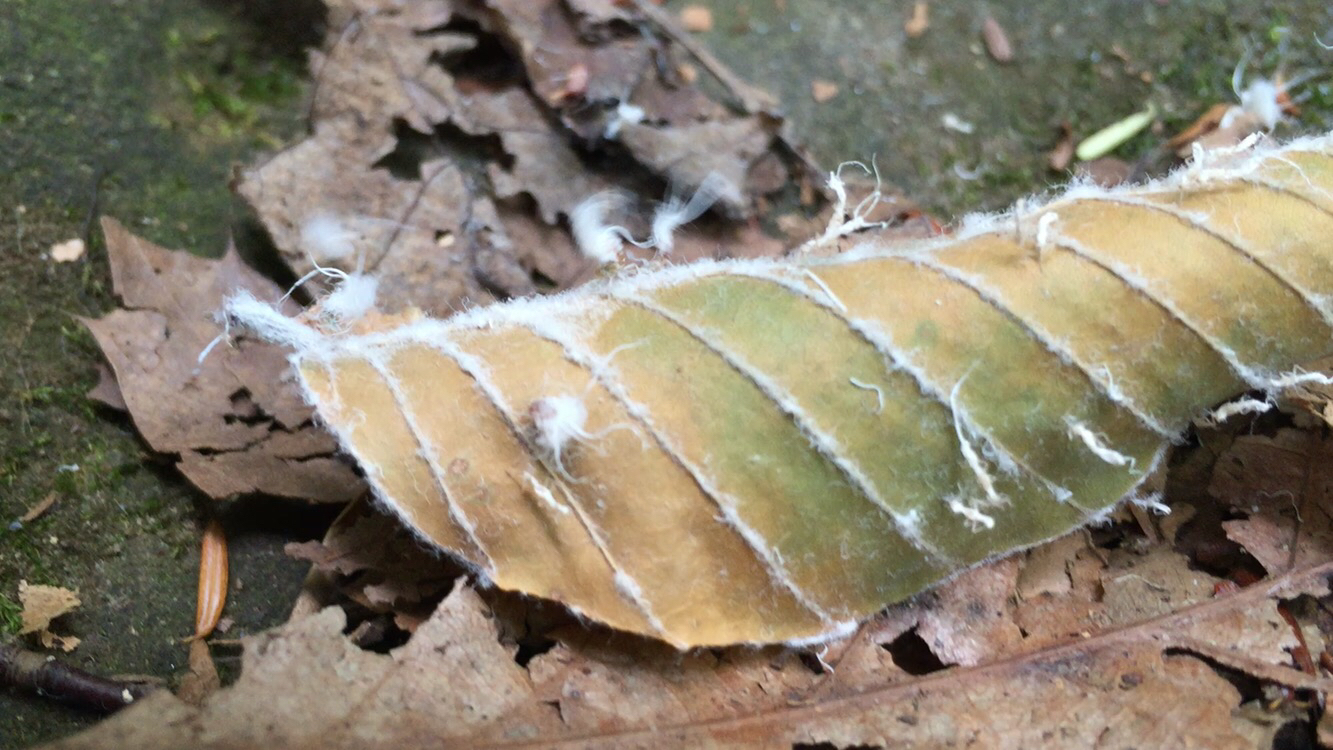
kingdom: Animalia
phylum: Arthropoda
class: Insecta
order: Hemiptera
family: Aphididae
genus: Grylloprociphilus
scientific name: Grylloprociphilus imbricator
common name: Beech blight aphid
